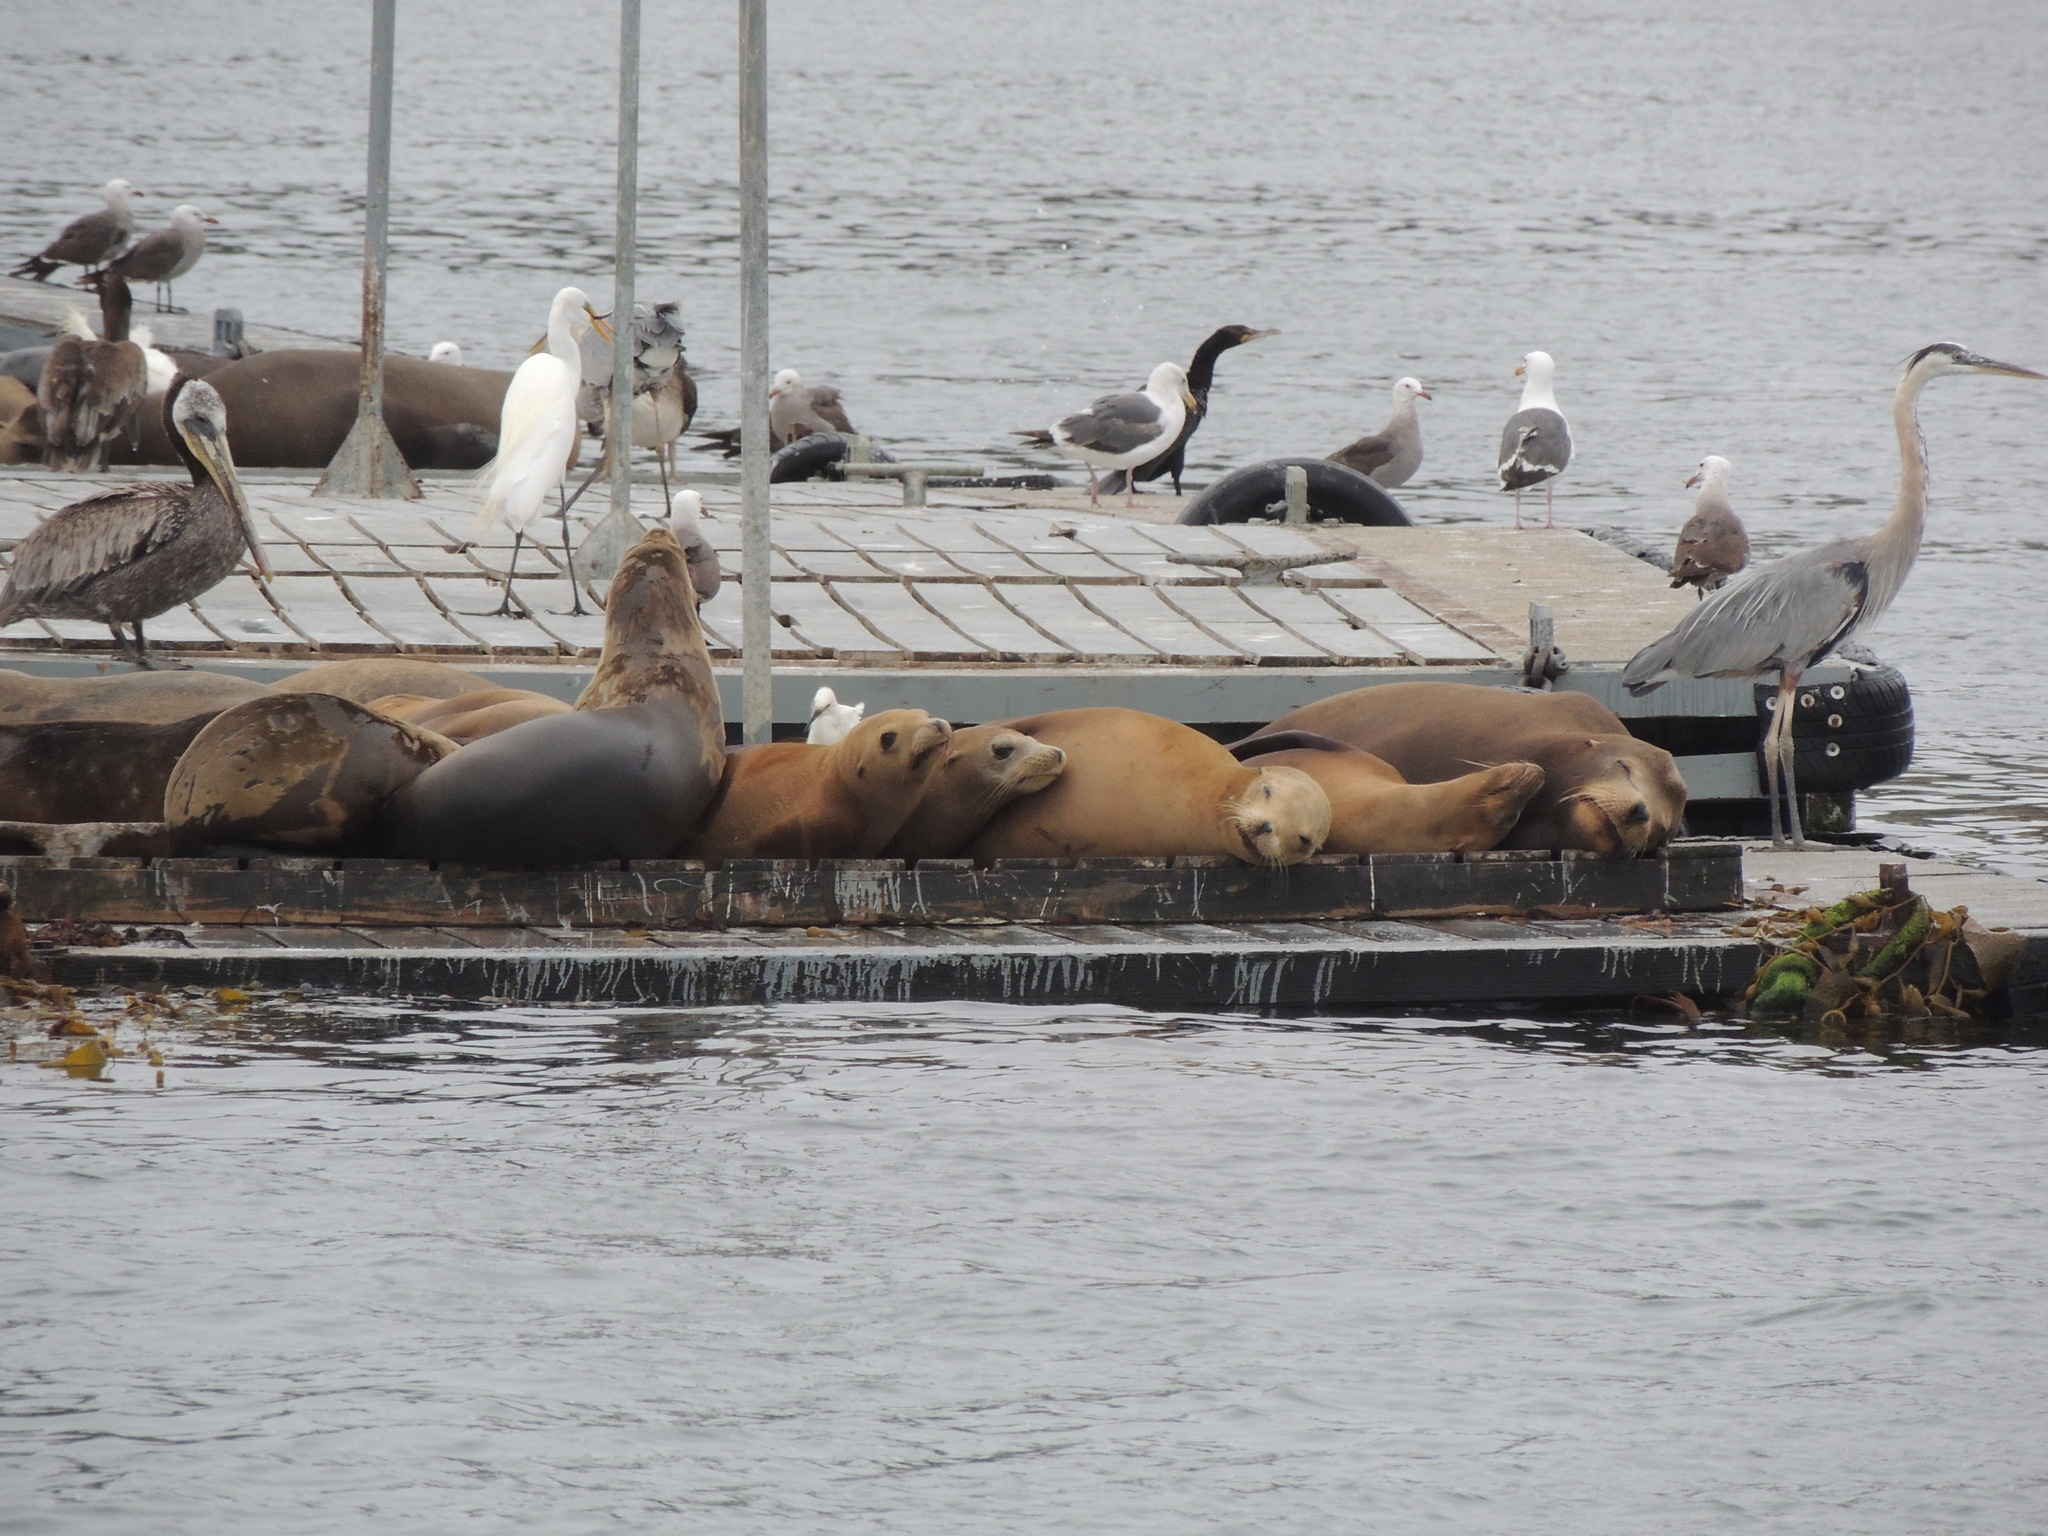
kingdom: Animalia
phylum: Chordata
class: Aves
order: Charadriiformes
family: Laridae
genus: Larus
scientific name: Larus occidentalis
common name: Western gull
